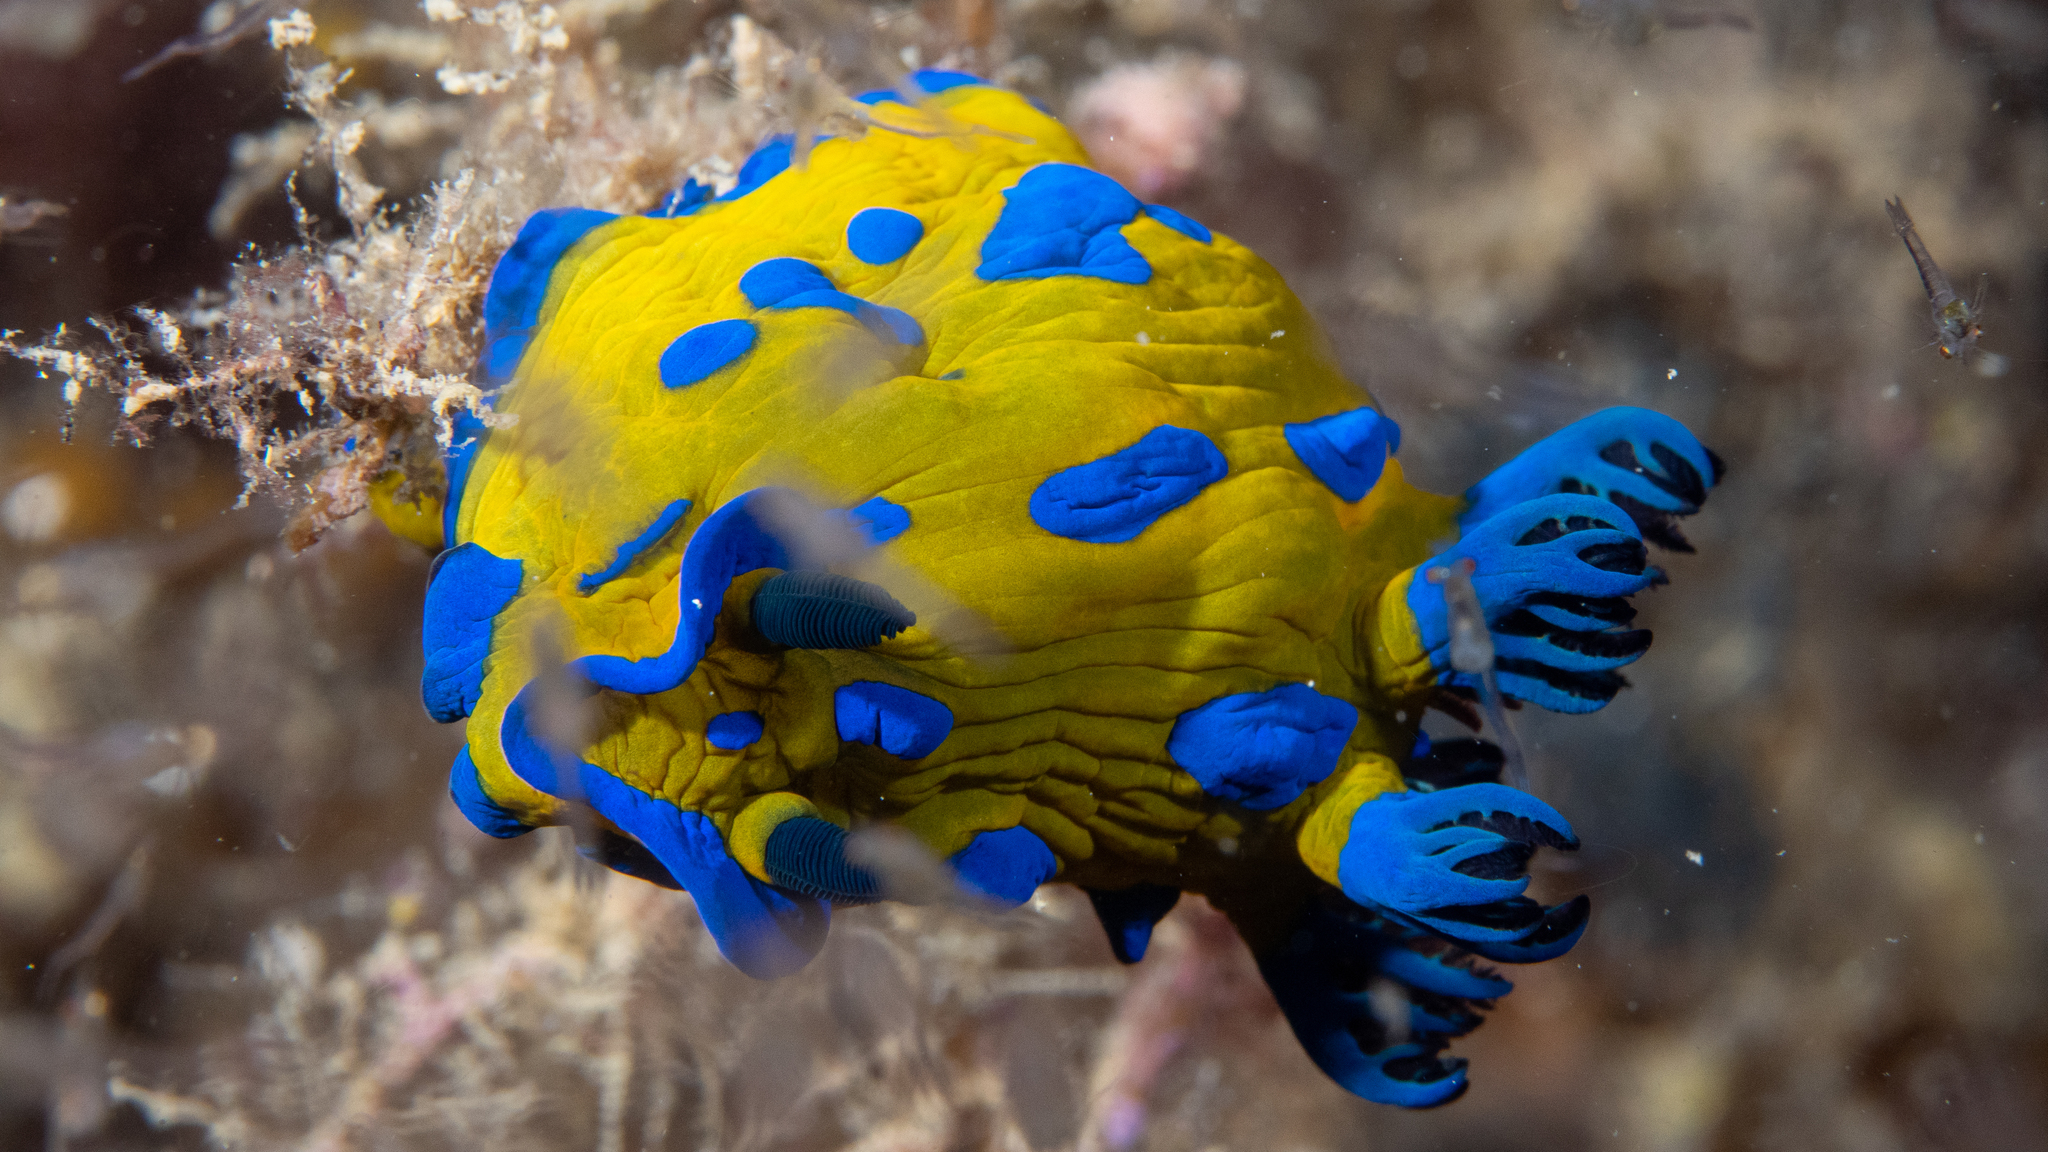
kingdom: Animalia
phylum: Mollusca
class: Gastropoda
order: Nudibranchia
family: Polyceridae
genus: Tambja
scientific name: Tambja verconis
